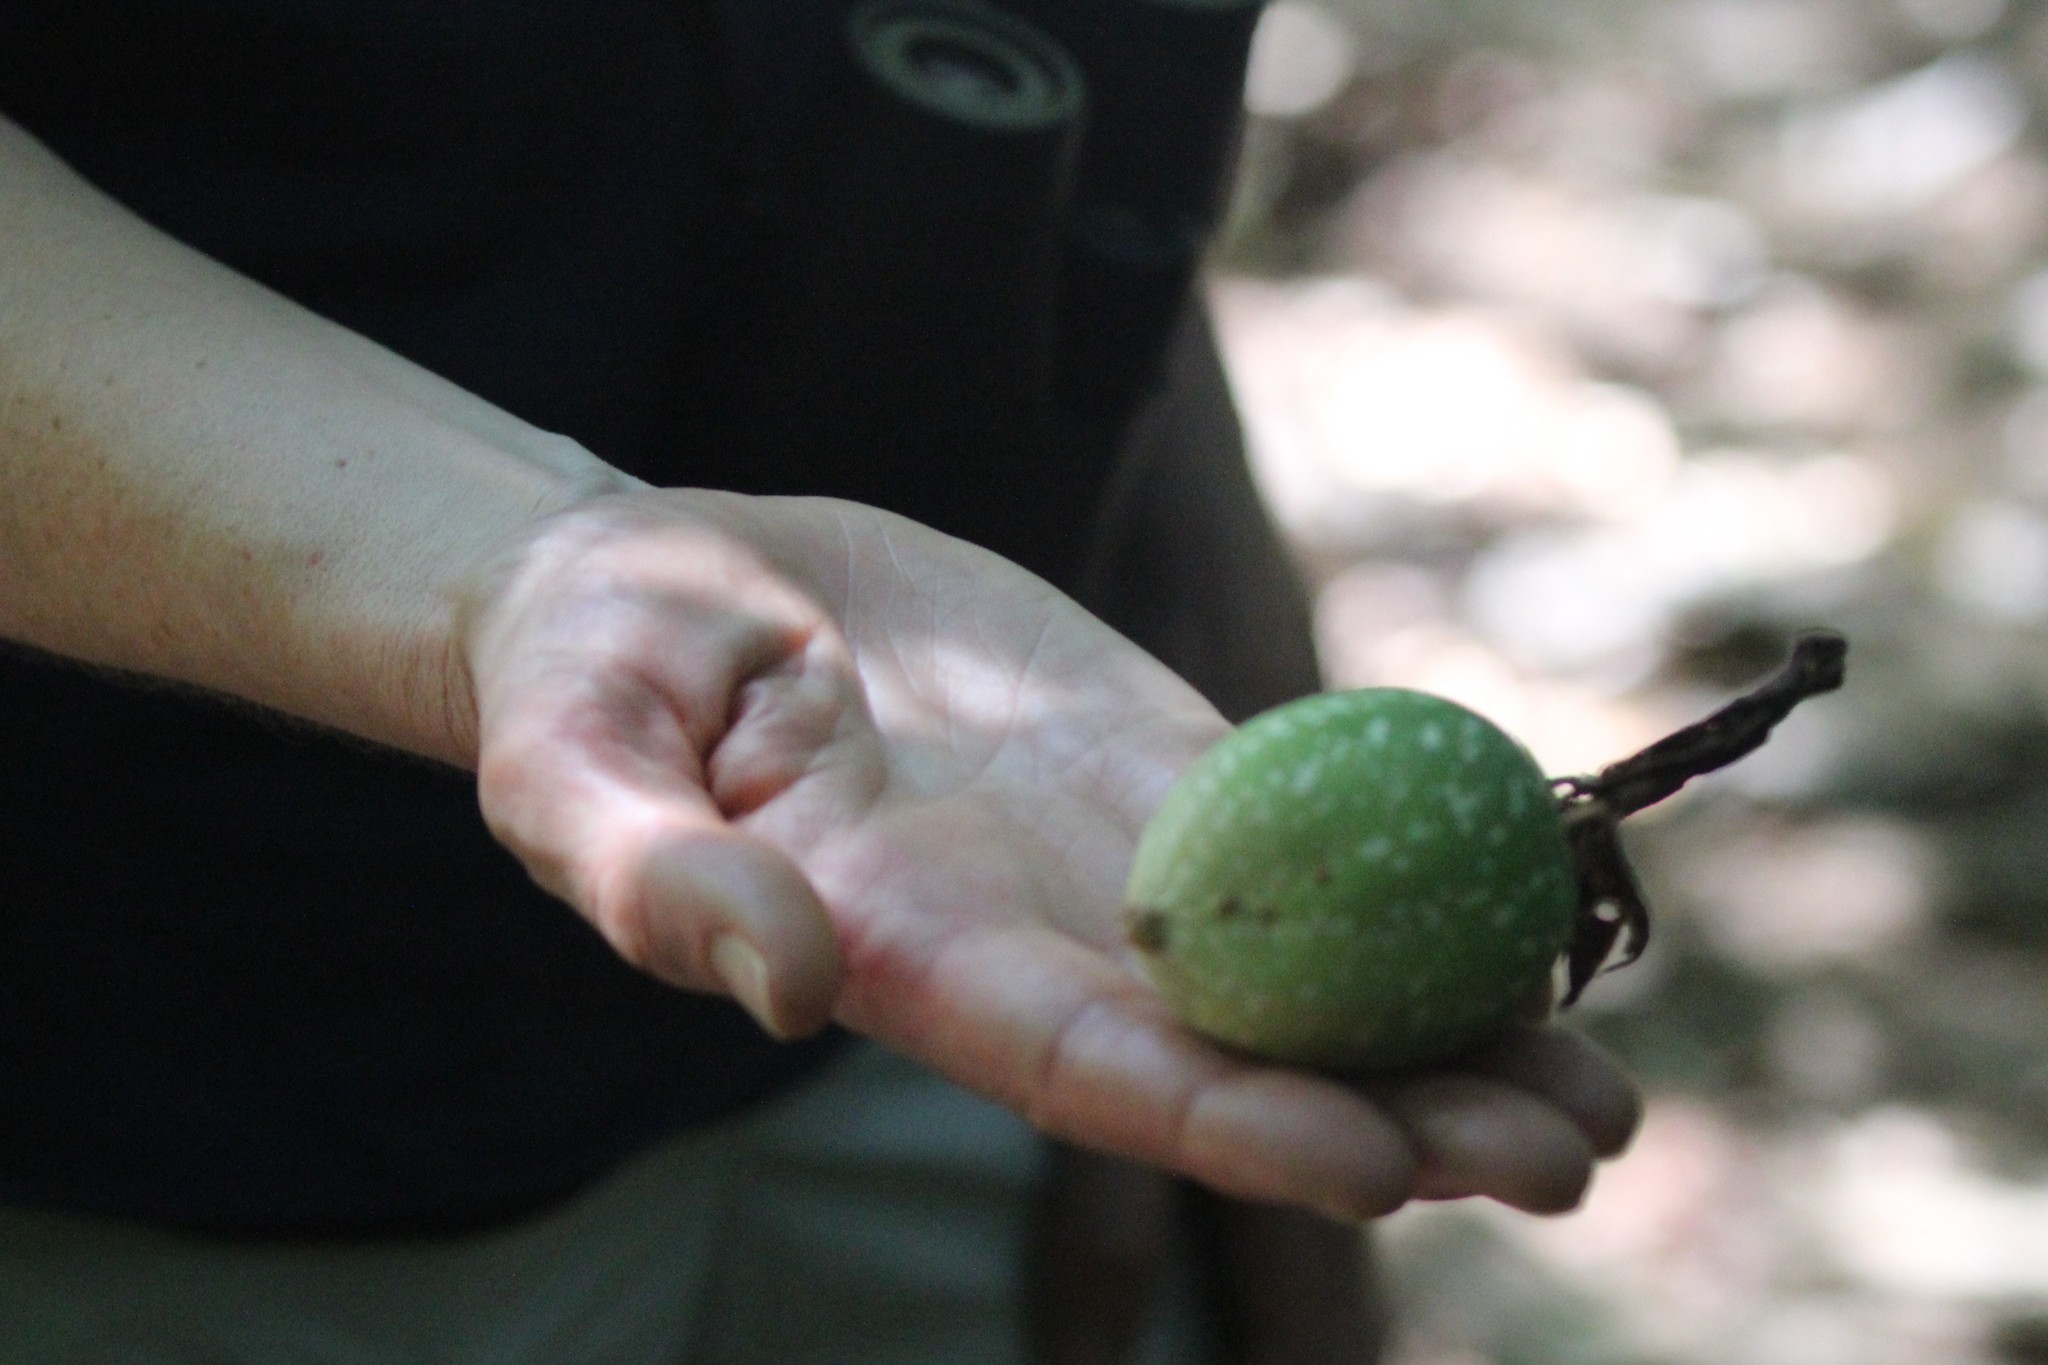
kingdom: Plantae
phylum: Tracheophyta
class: Magnoliopsida
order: Malpighiales
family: Passifloraceae
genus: Passiflora
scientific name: Passiflora vitifolia
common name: Perfumed passionflower
